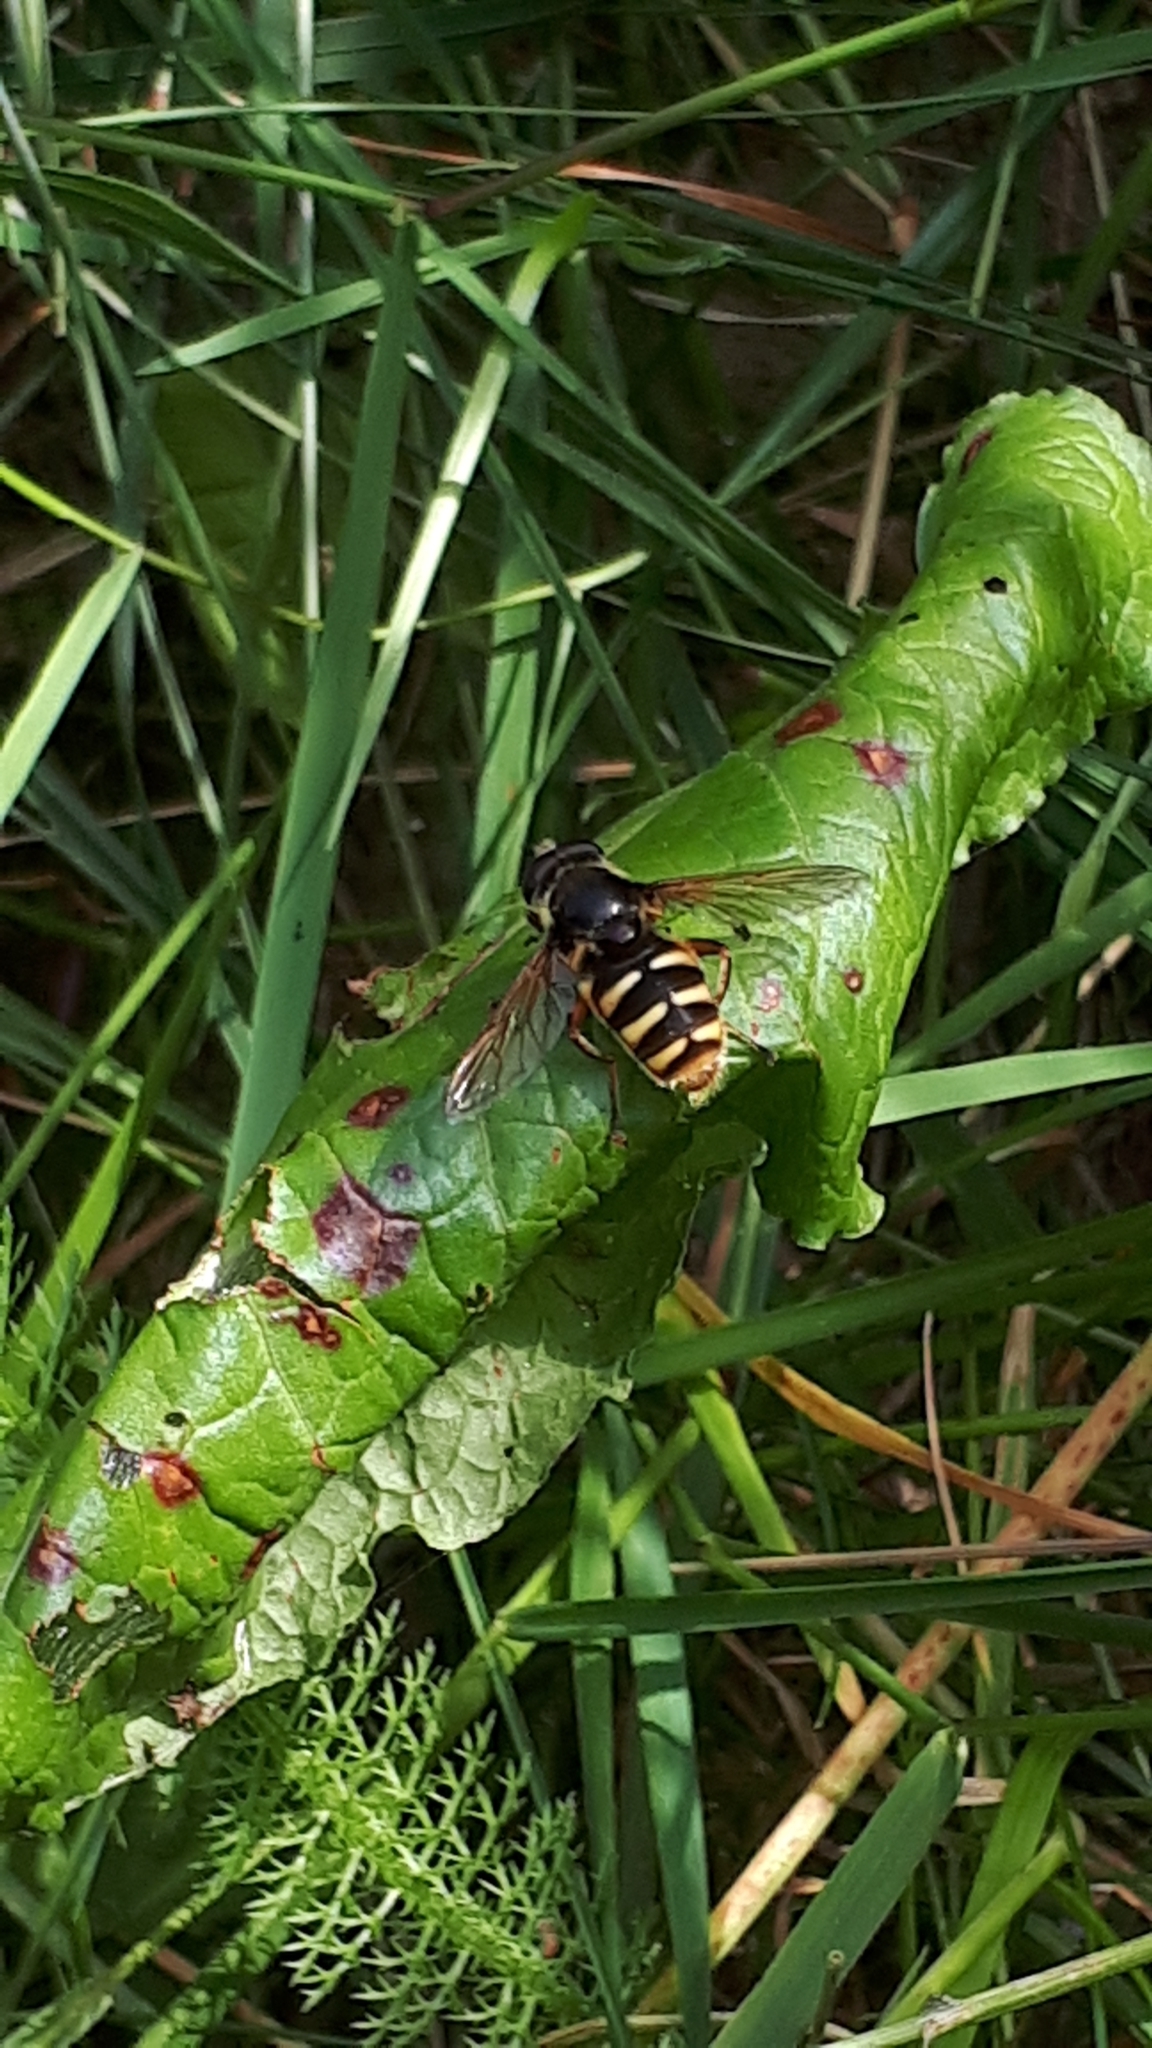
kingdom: Animalia
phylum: Arthropoda
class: Insecta
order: Diptera
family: Syrphidae
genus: Sericomyia
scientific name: Sericomyia silentis
